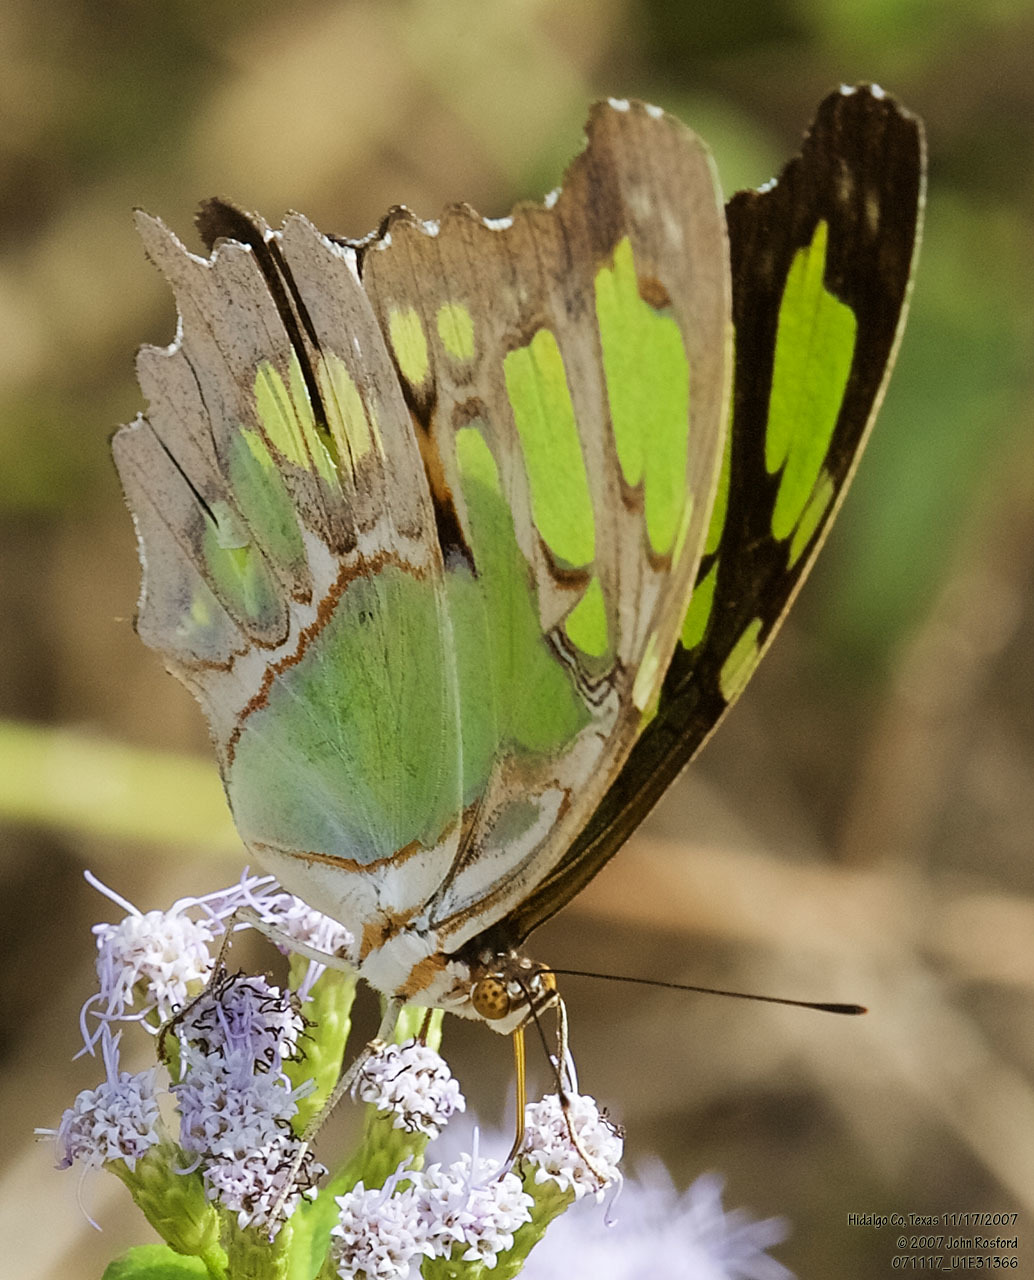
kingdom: Animalia
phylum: Arthropoda
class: Insecta
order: Lepidoptera
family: Nymphalidae
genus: Siproeta
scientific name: Siproeta stelenes
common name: Malachite
